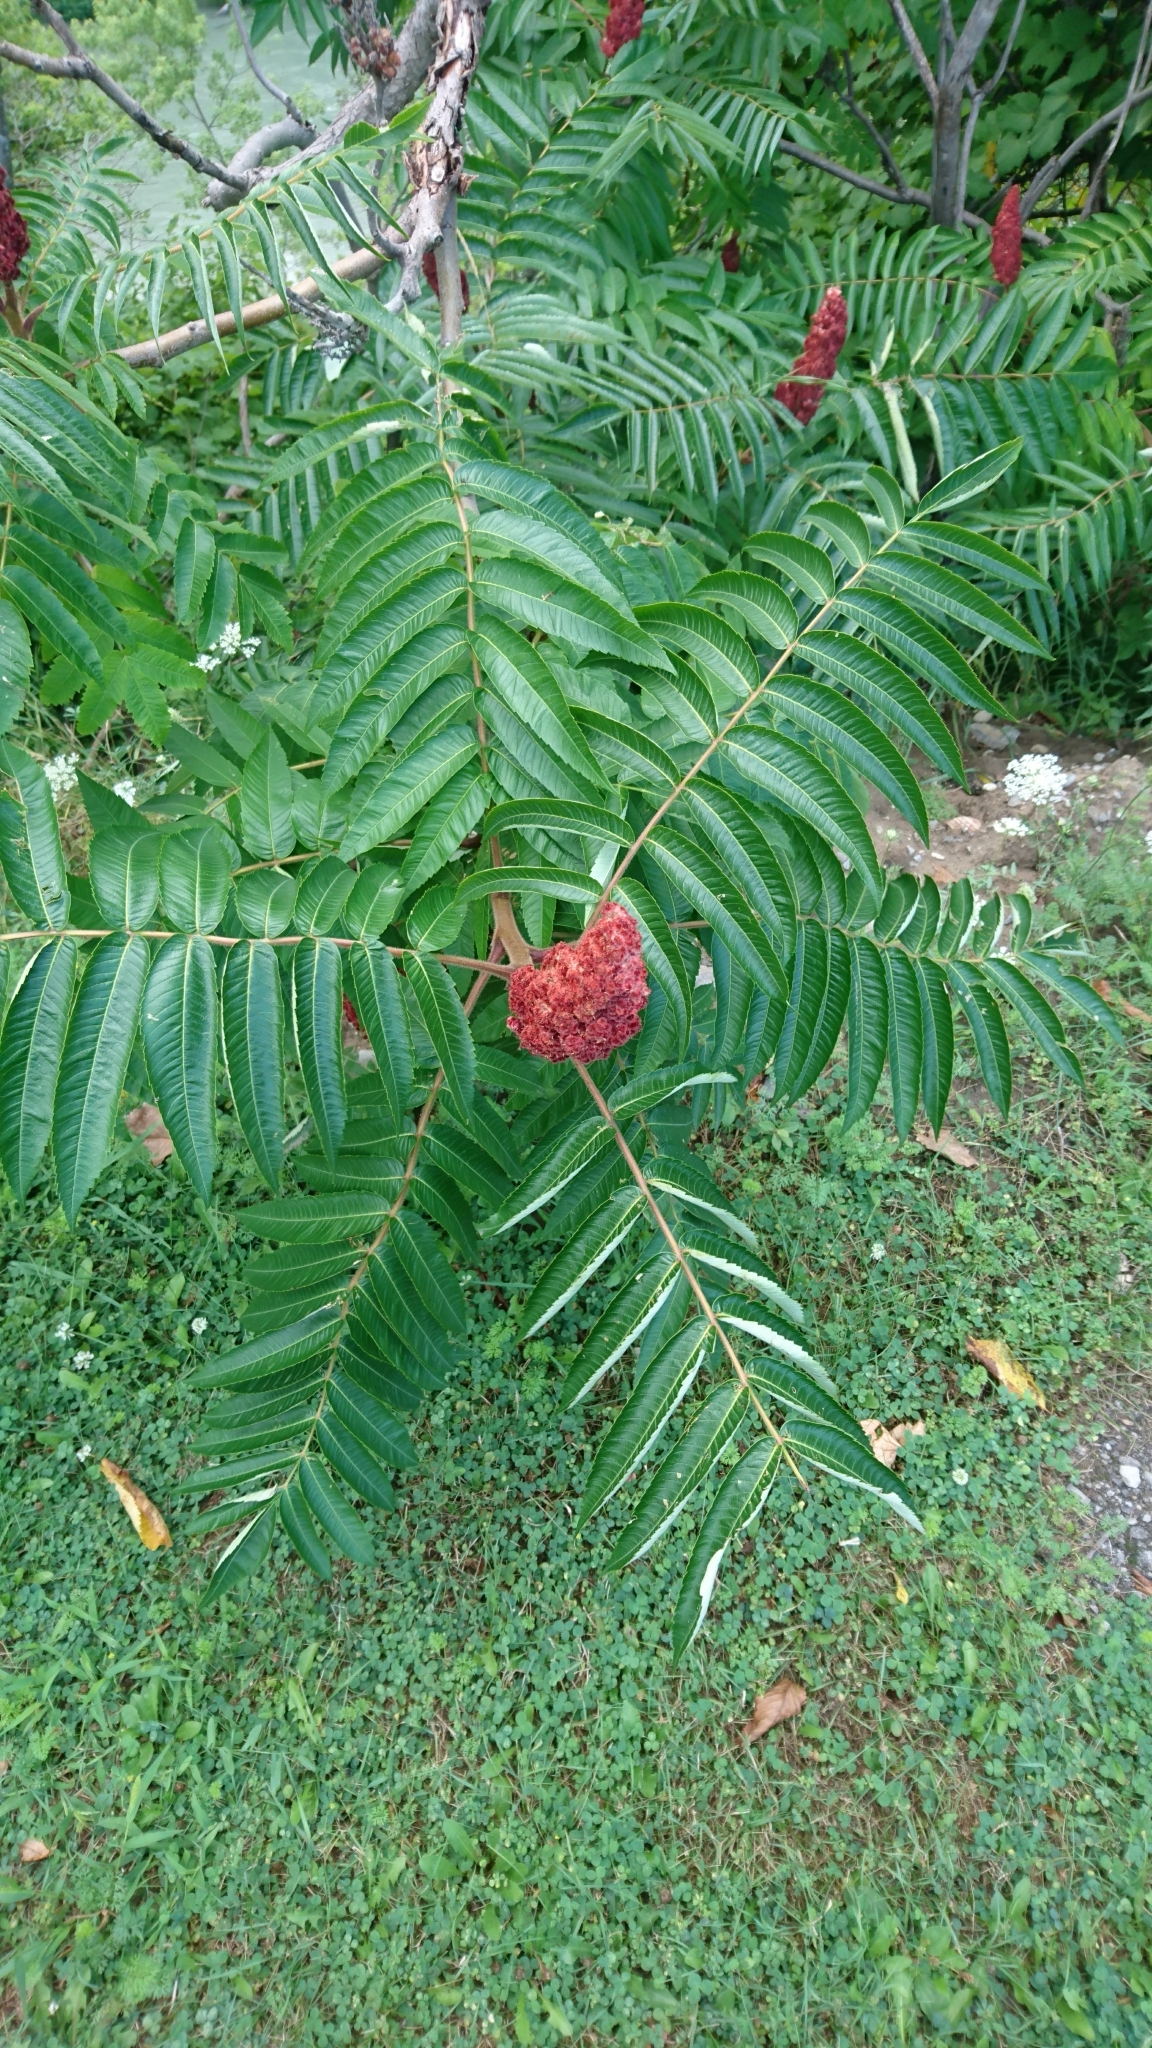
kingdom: Plantae
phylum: Tracheophyta
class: Magnoliopsida
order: Sapindales
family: Anacardiaceae
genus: Rhus
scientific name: Rhus typhina
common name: Staghorn sumac
